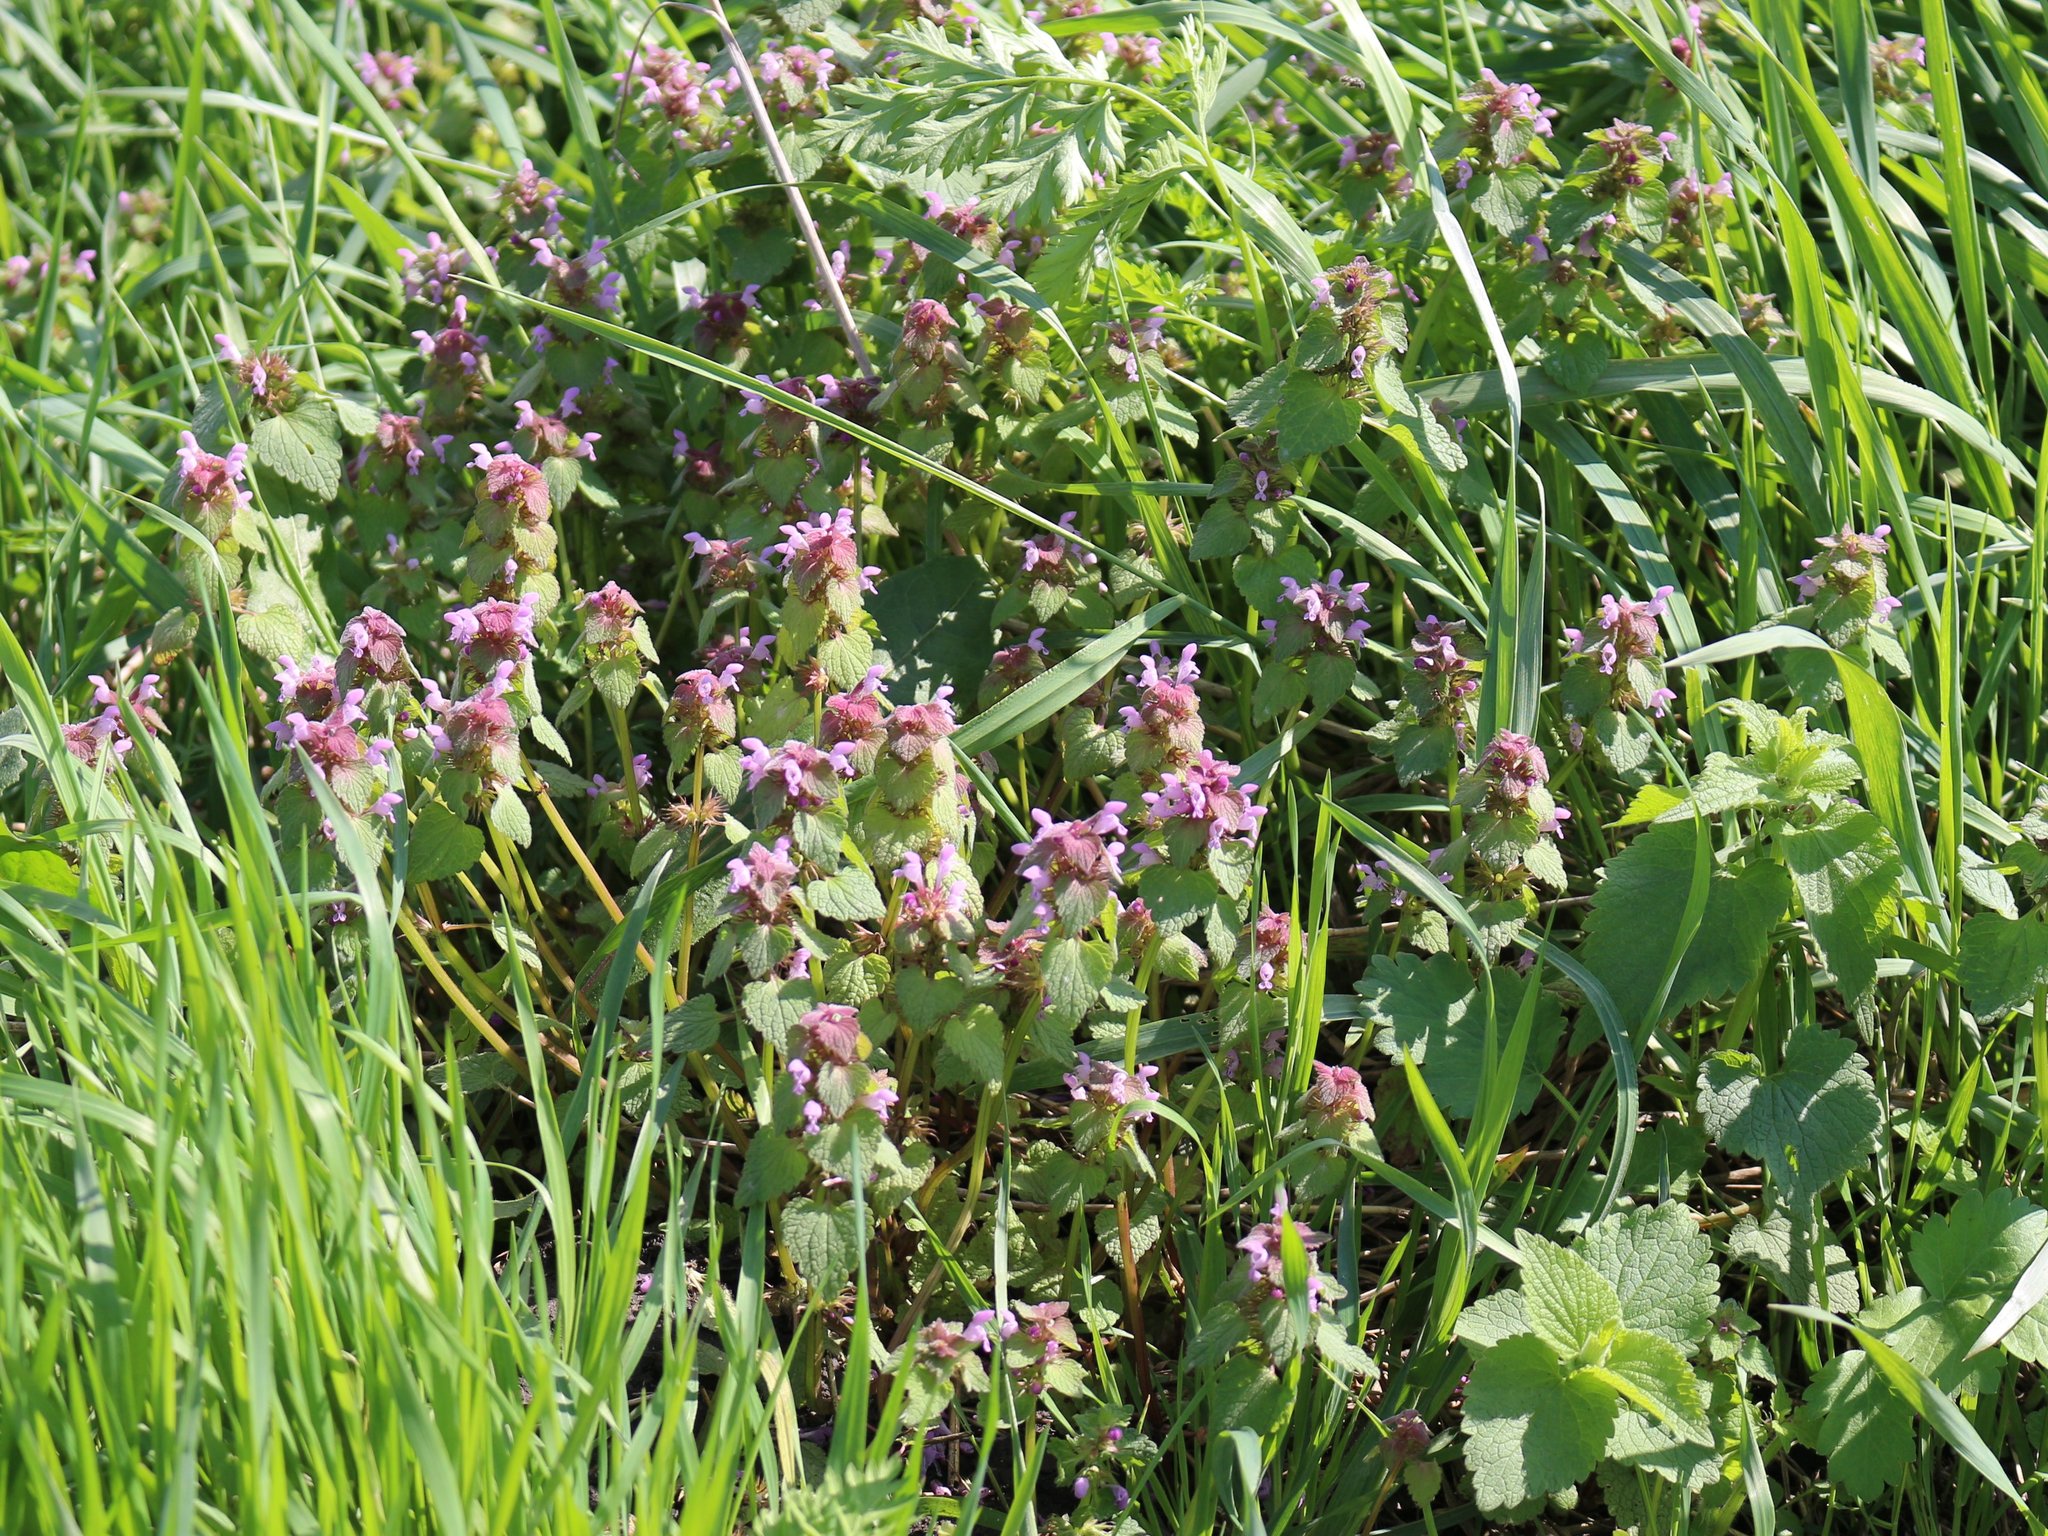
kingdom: Plantae
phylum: Tracheophyta
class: Magnoliopsida
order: Lamiales
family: Lamiaceae
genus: Lamium
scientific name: Lamium purpureum
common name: Red dead-nettle
